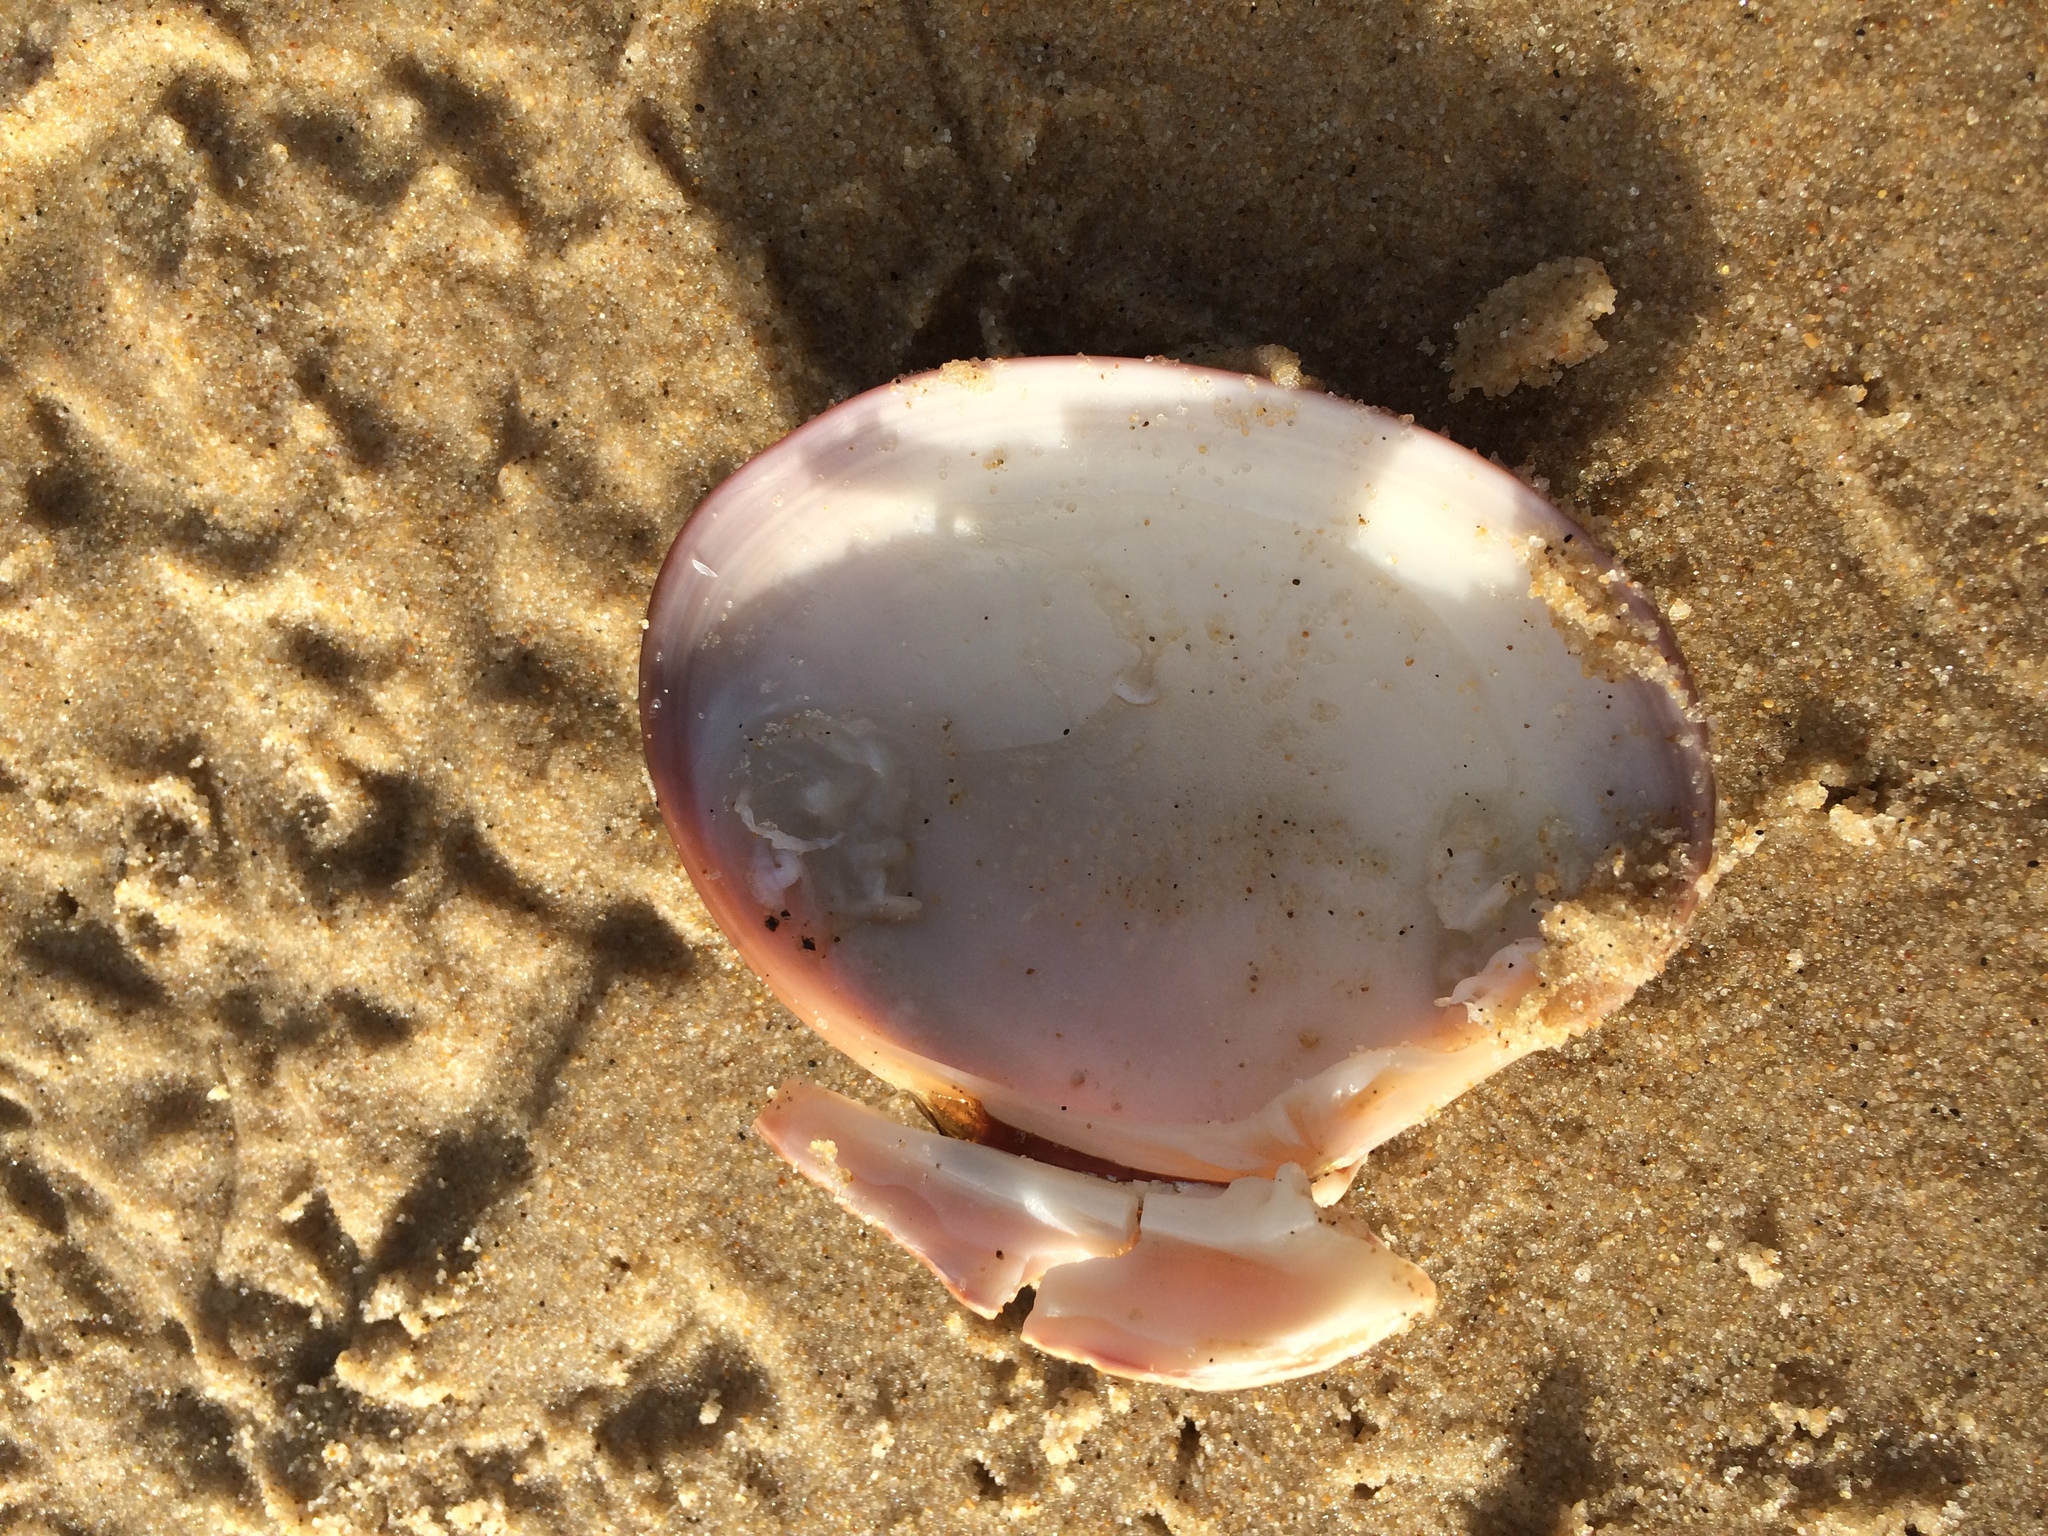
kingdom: Animalia
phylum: Mollusca
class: Bivalvia
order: Venerida
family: Veneridae
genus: Callista
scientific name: Callista chione
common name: Brown venus
